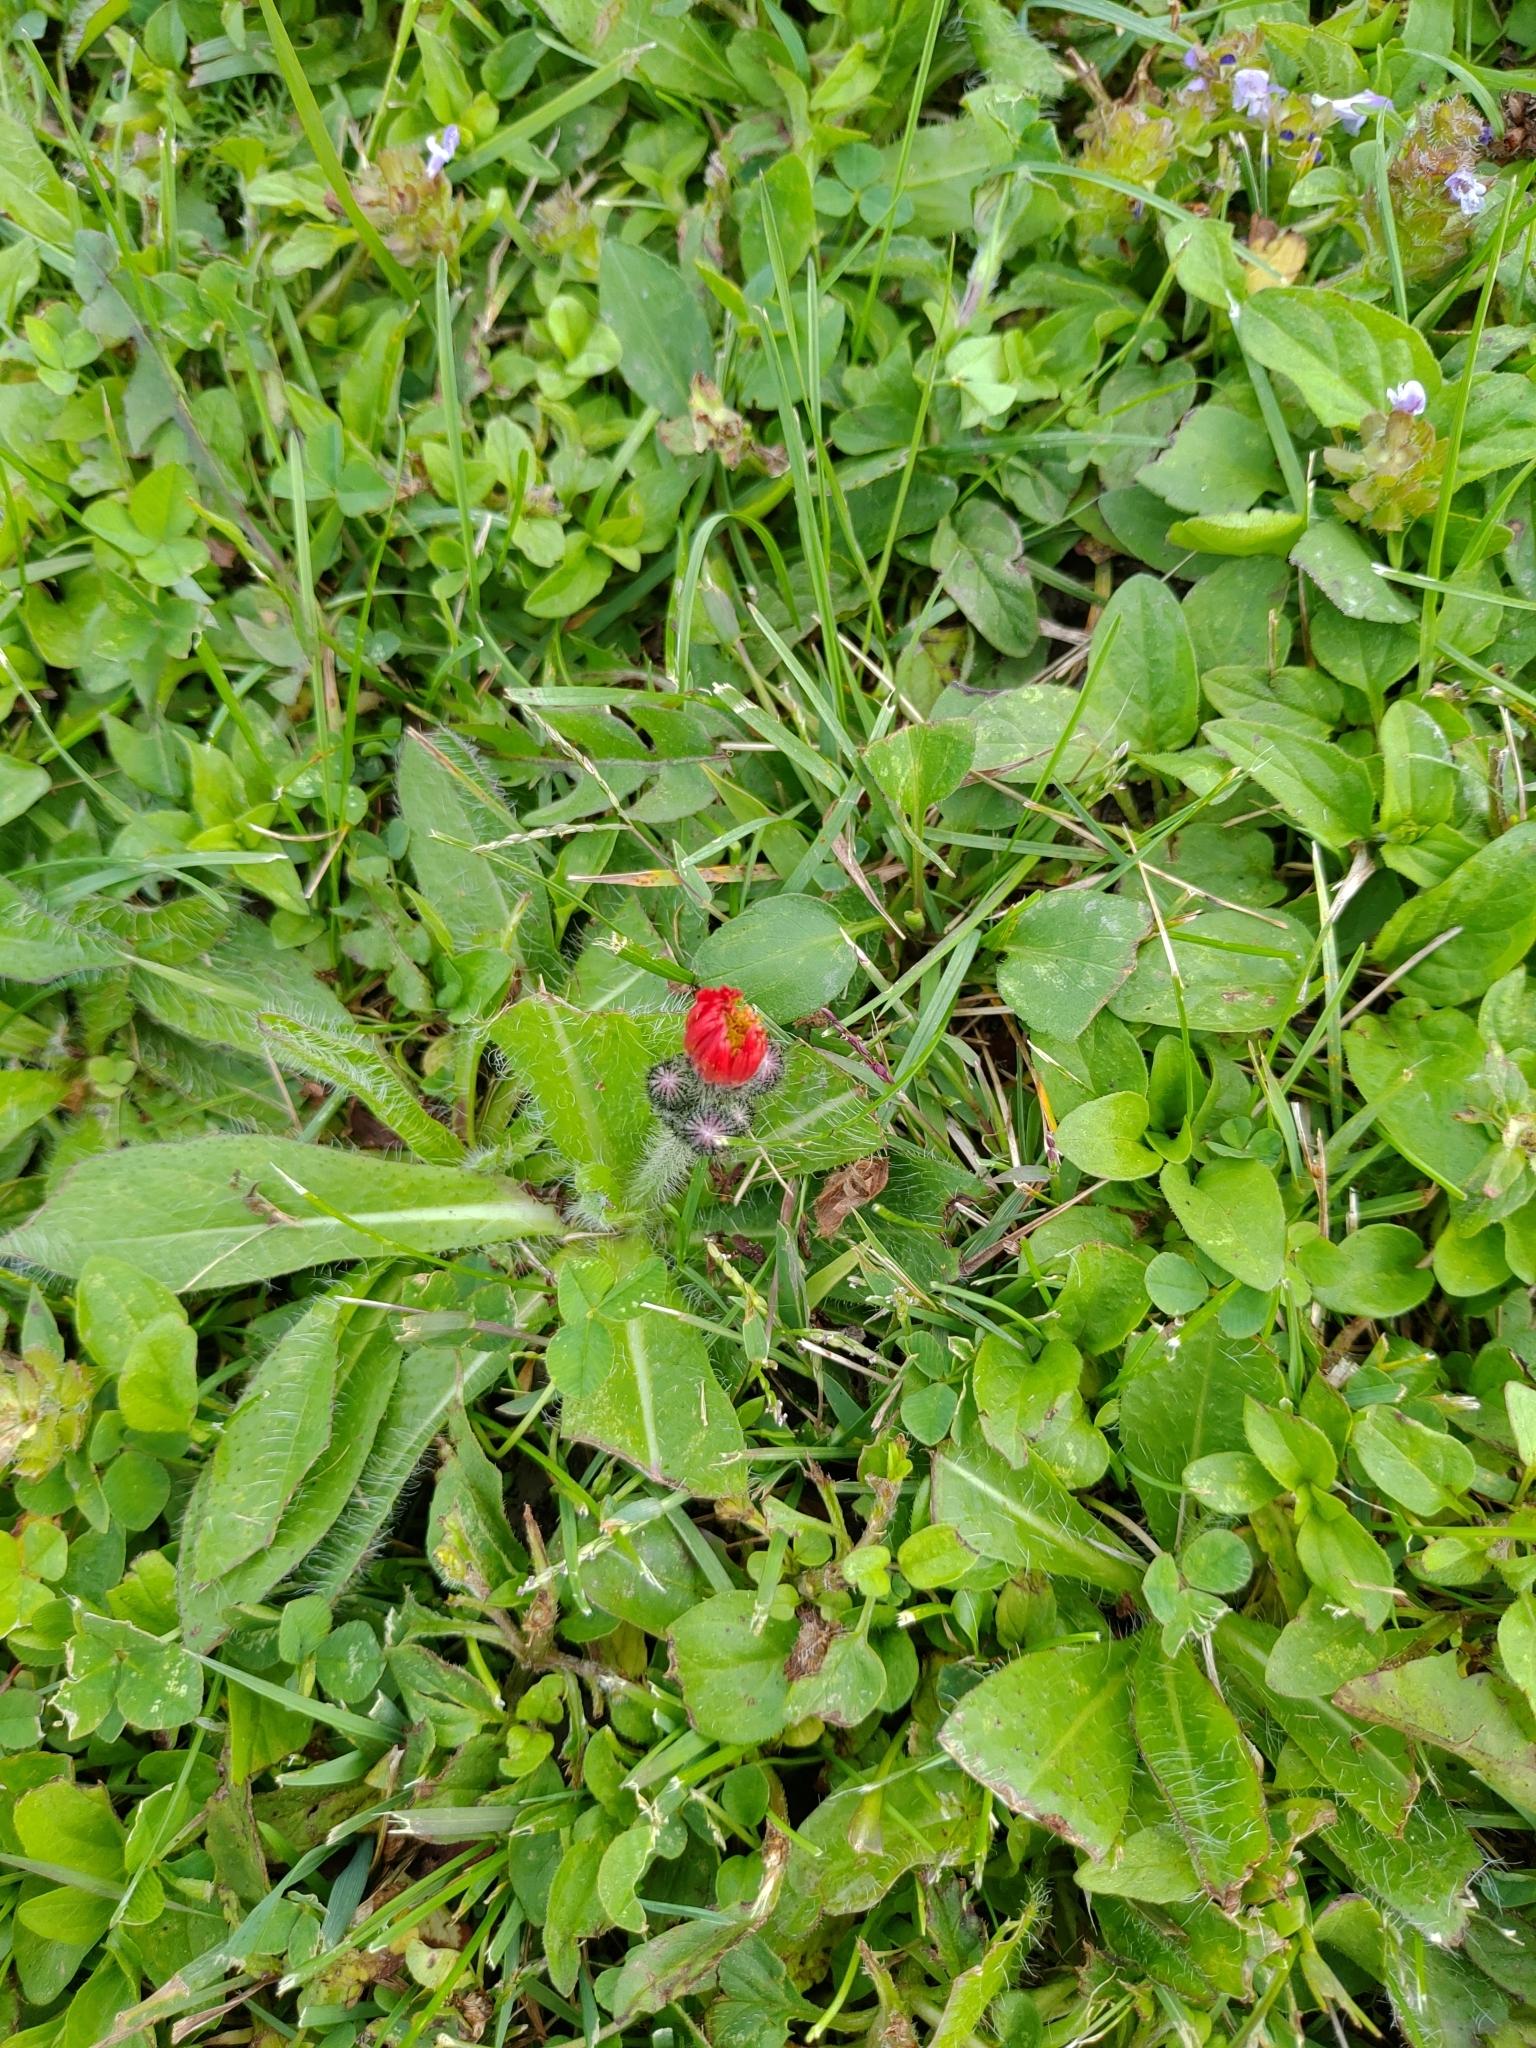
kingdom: Plantae
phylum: Tracheophyta
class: Magnoliopsida
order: Asterales
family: Asteraceae
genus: Pilosella
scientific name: Pilosella aurantiaca
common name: Fox-and-cubs
